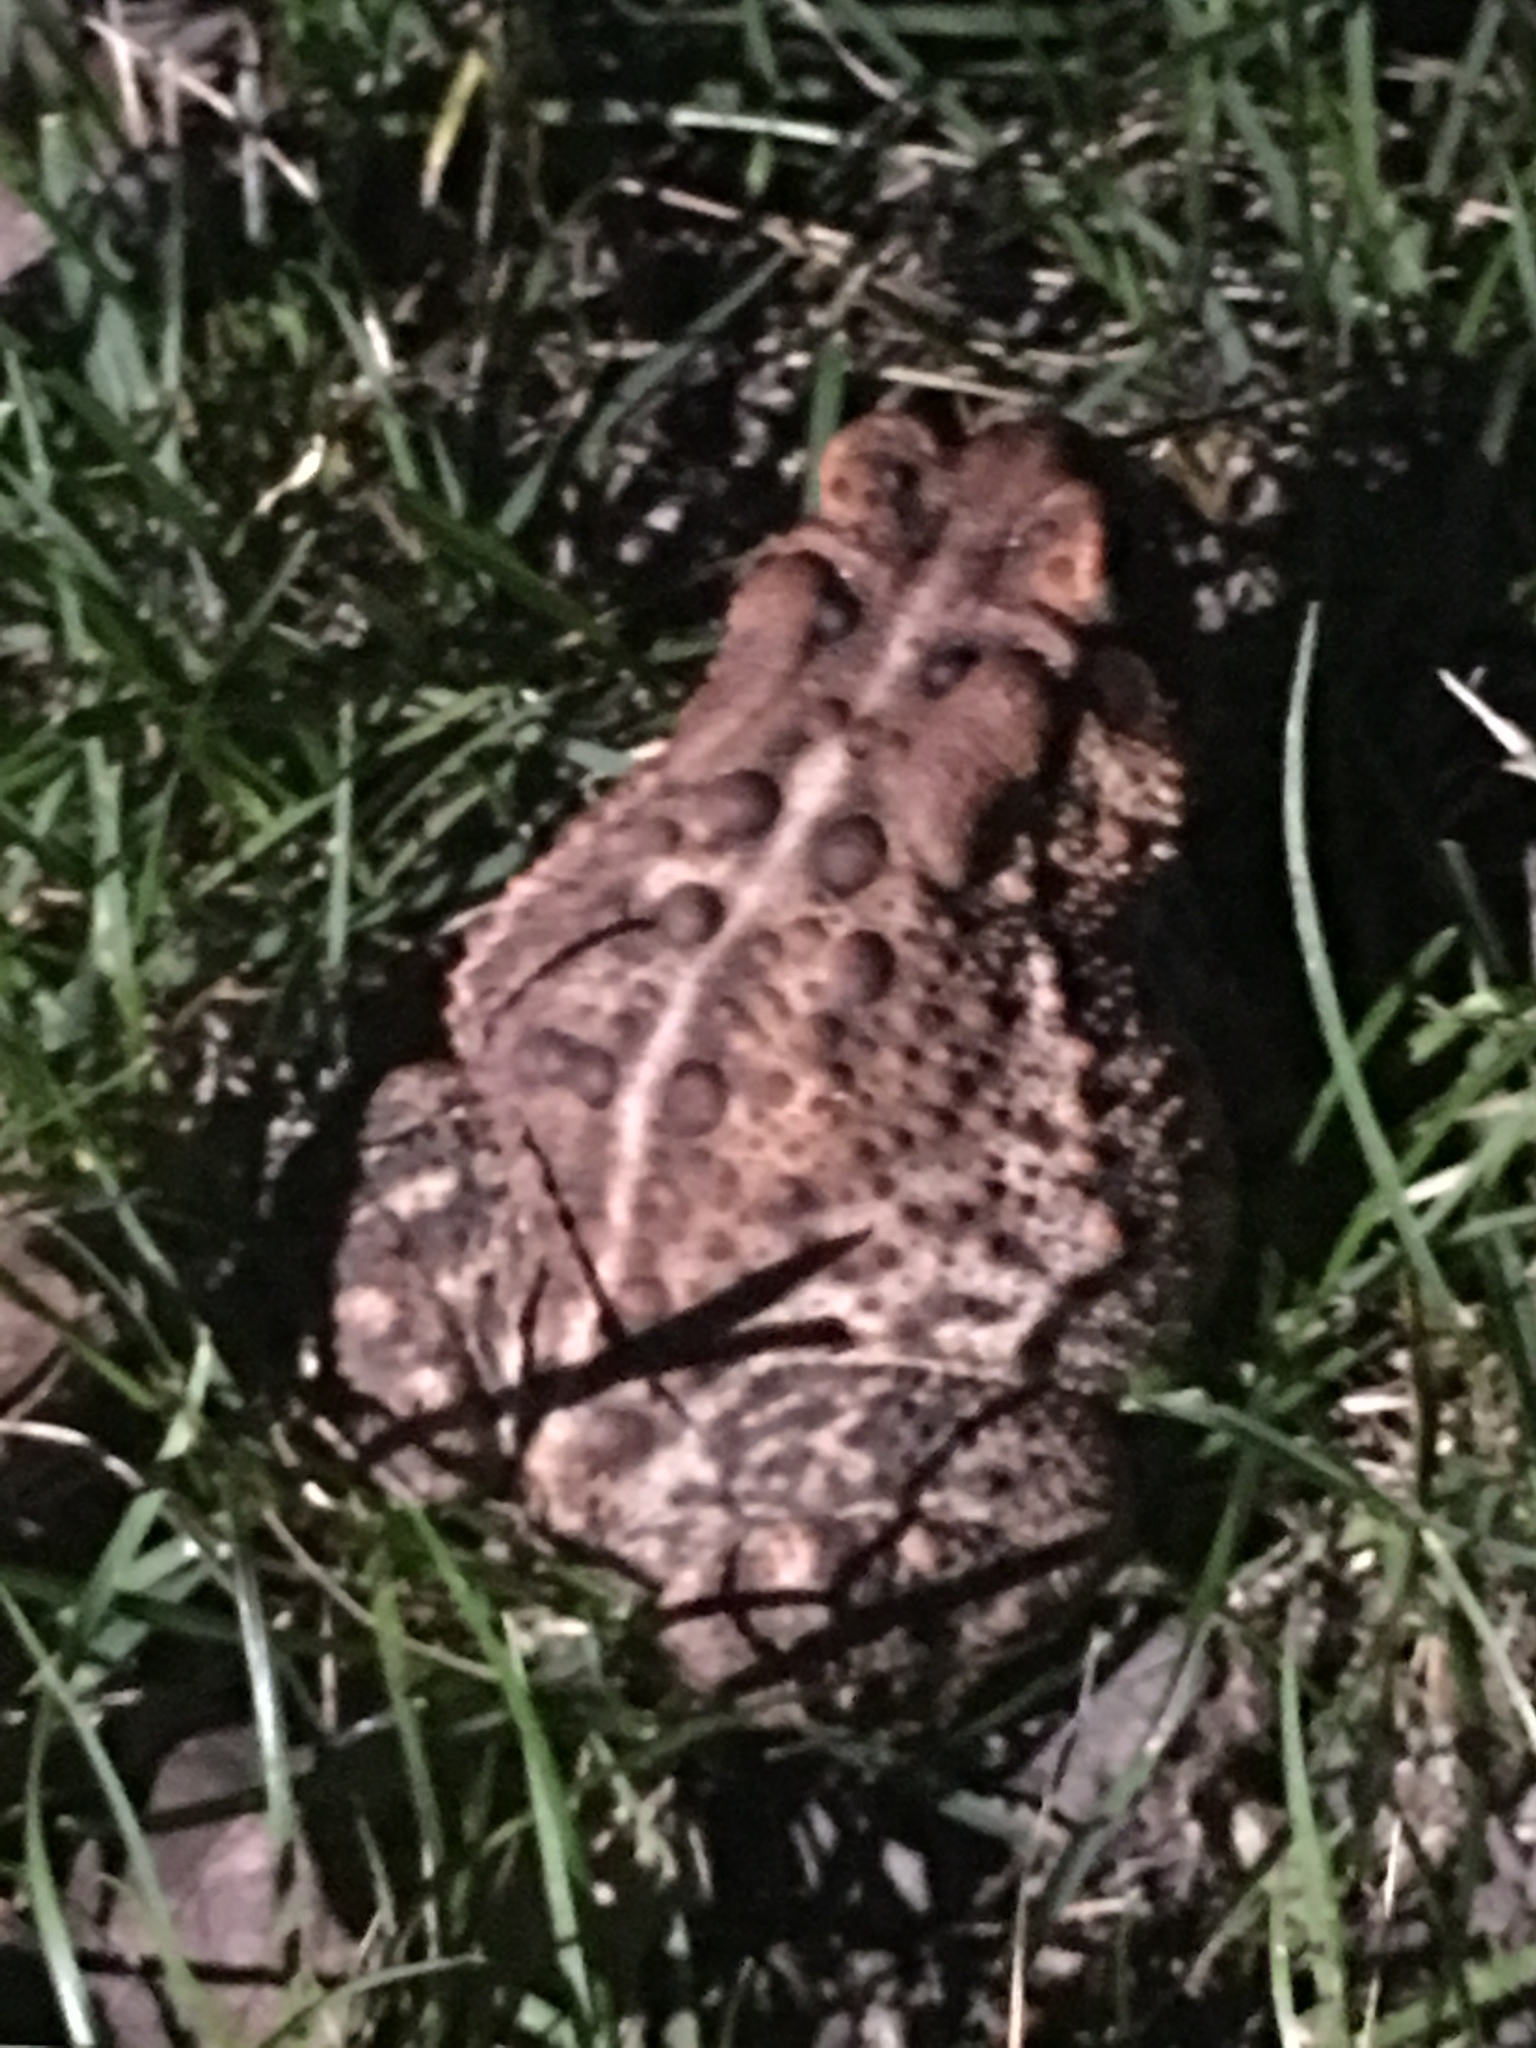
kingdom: Animalia
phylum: Chordata
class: Amphibia
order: Anura
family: Bufonidae
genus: Anaxyrus
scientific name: Anaxyrus americanus
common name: American toad
